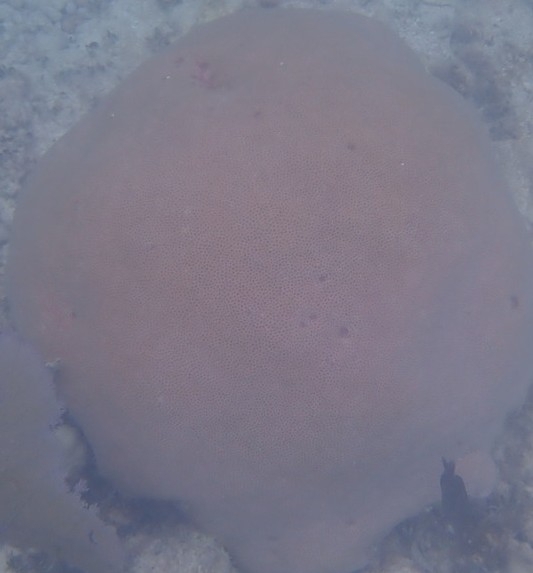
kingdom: Animalia
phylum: Cnidaria
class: Anthozoa
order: Scleractinia
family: Rhizangiidae
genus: Siderastrea
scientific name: Siderastrea siderea
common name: Massive starlet coral
